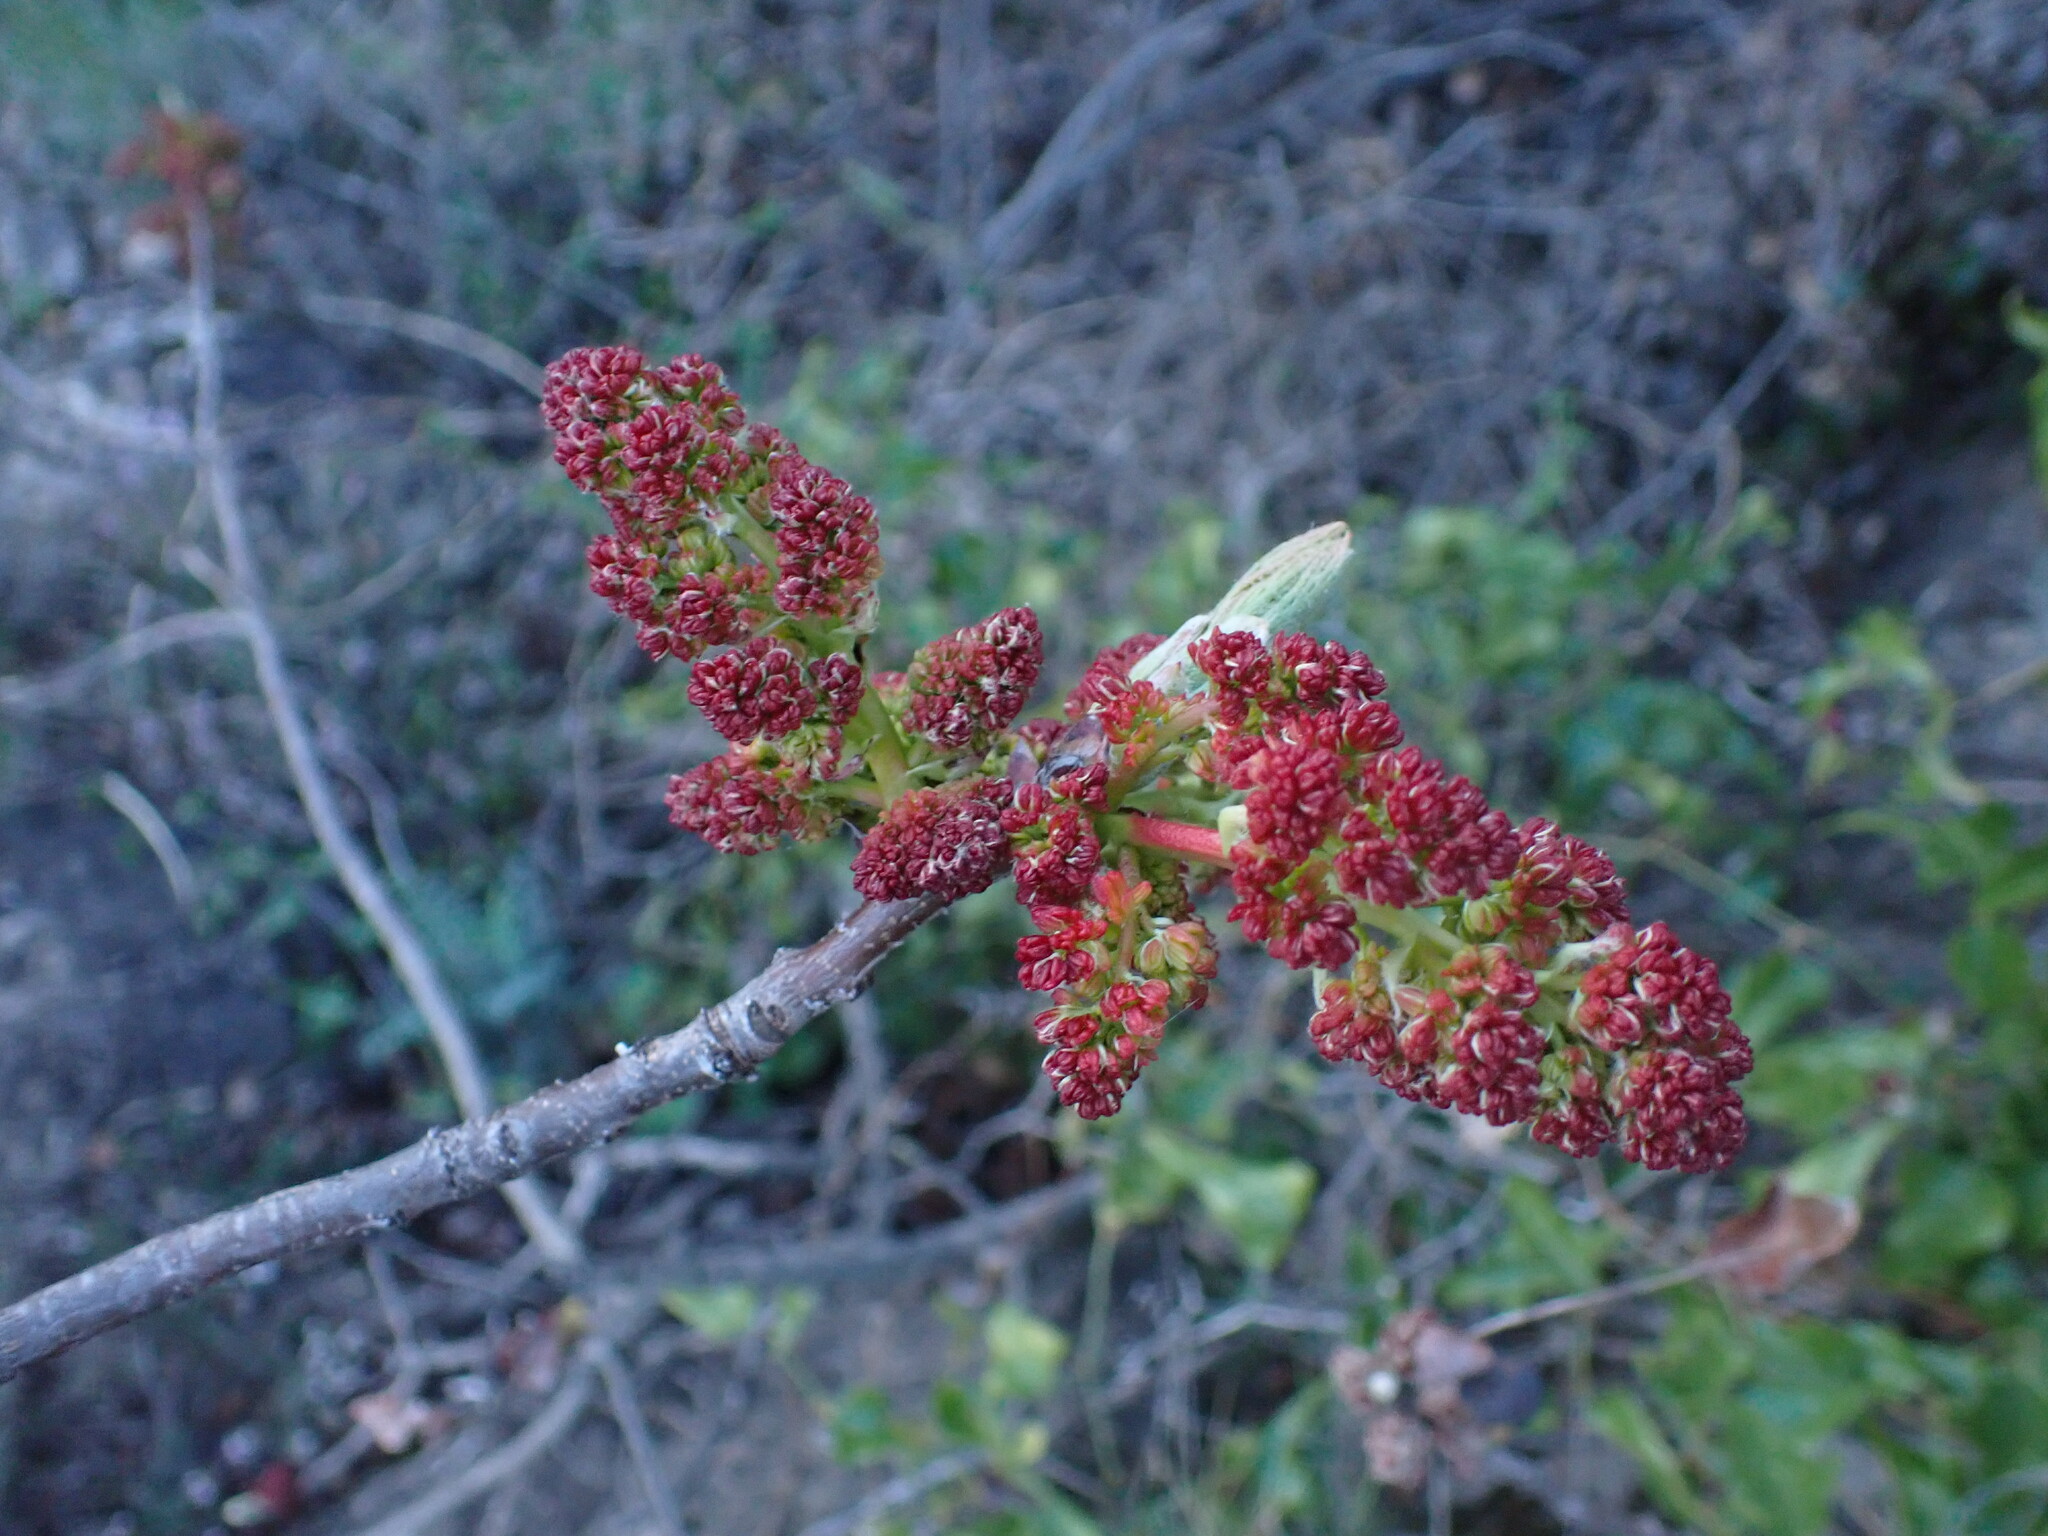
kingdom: Plantae
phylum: Tracheophyta
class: Magnoliopsida
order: Sapindales
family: Anacardiaceae
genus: Pistacia
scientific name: Pistacia terebinthus
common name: Terebinth
